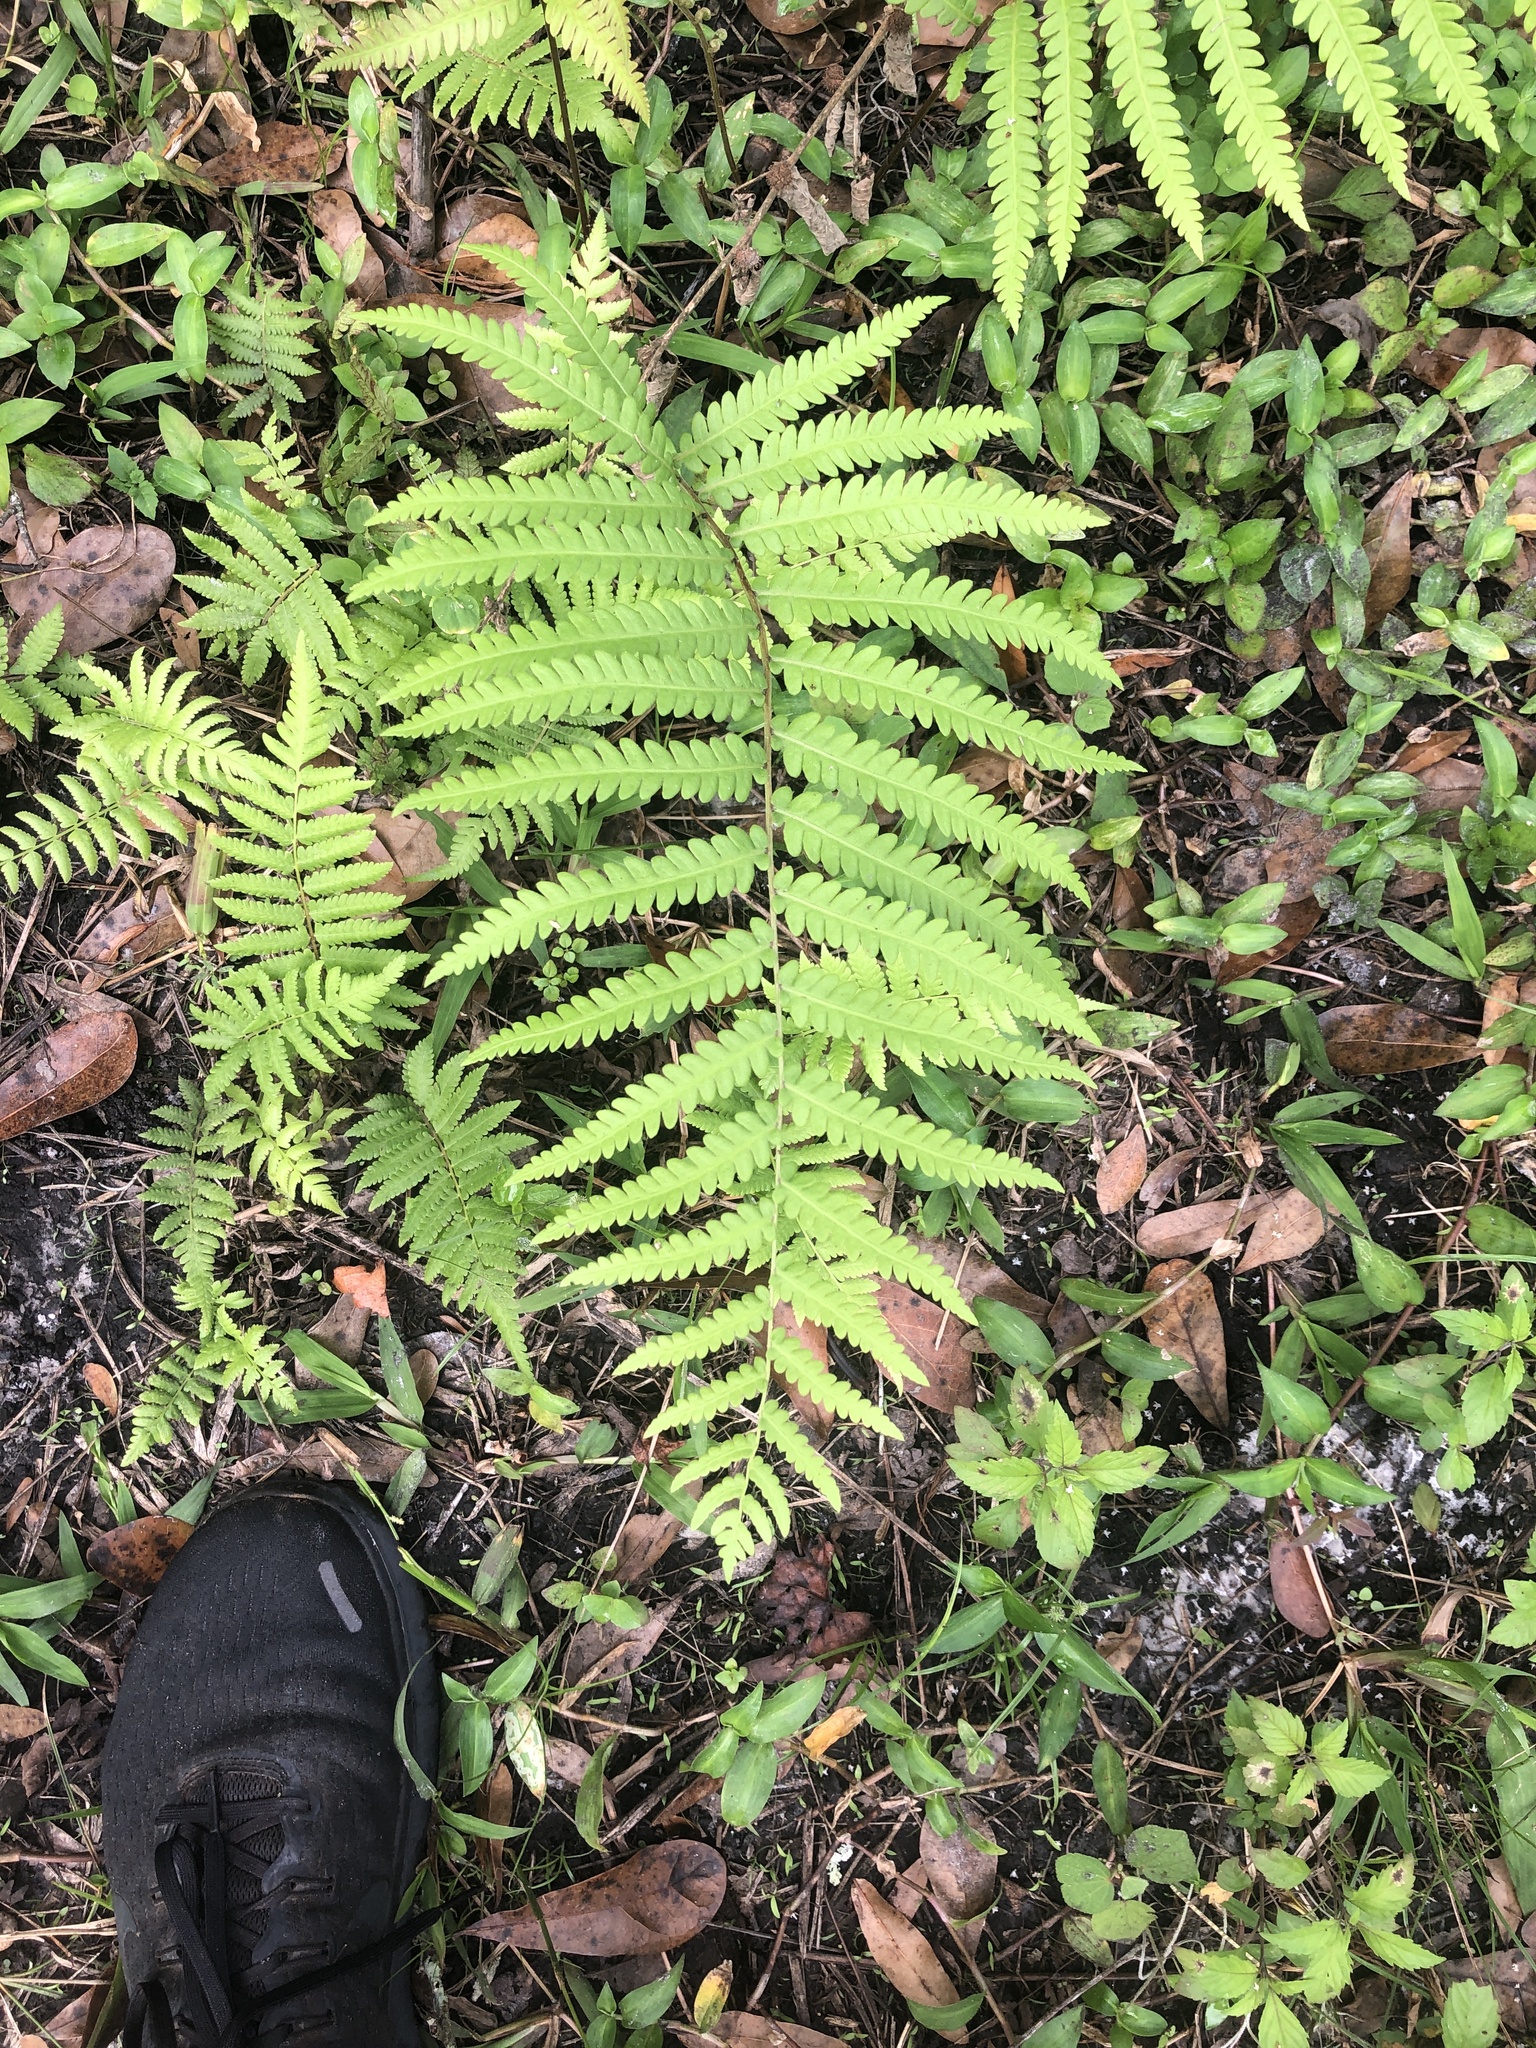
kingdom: Plantae
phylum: Tracheophyta
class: Polypodiopsida
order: Polypodiales
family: Blechnaceae
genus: Anchistea
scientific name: Anchistea virginica
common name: Virginia chain fern
